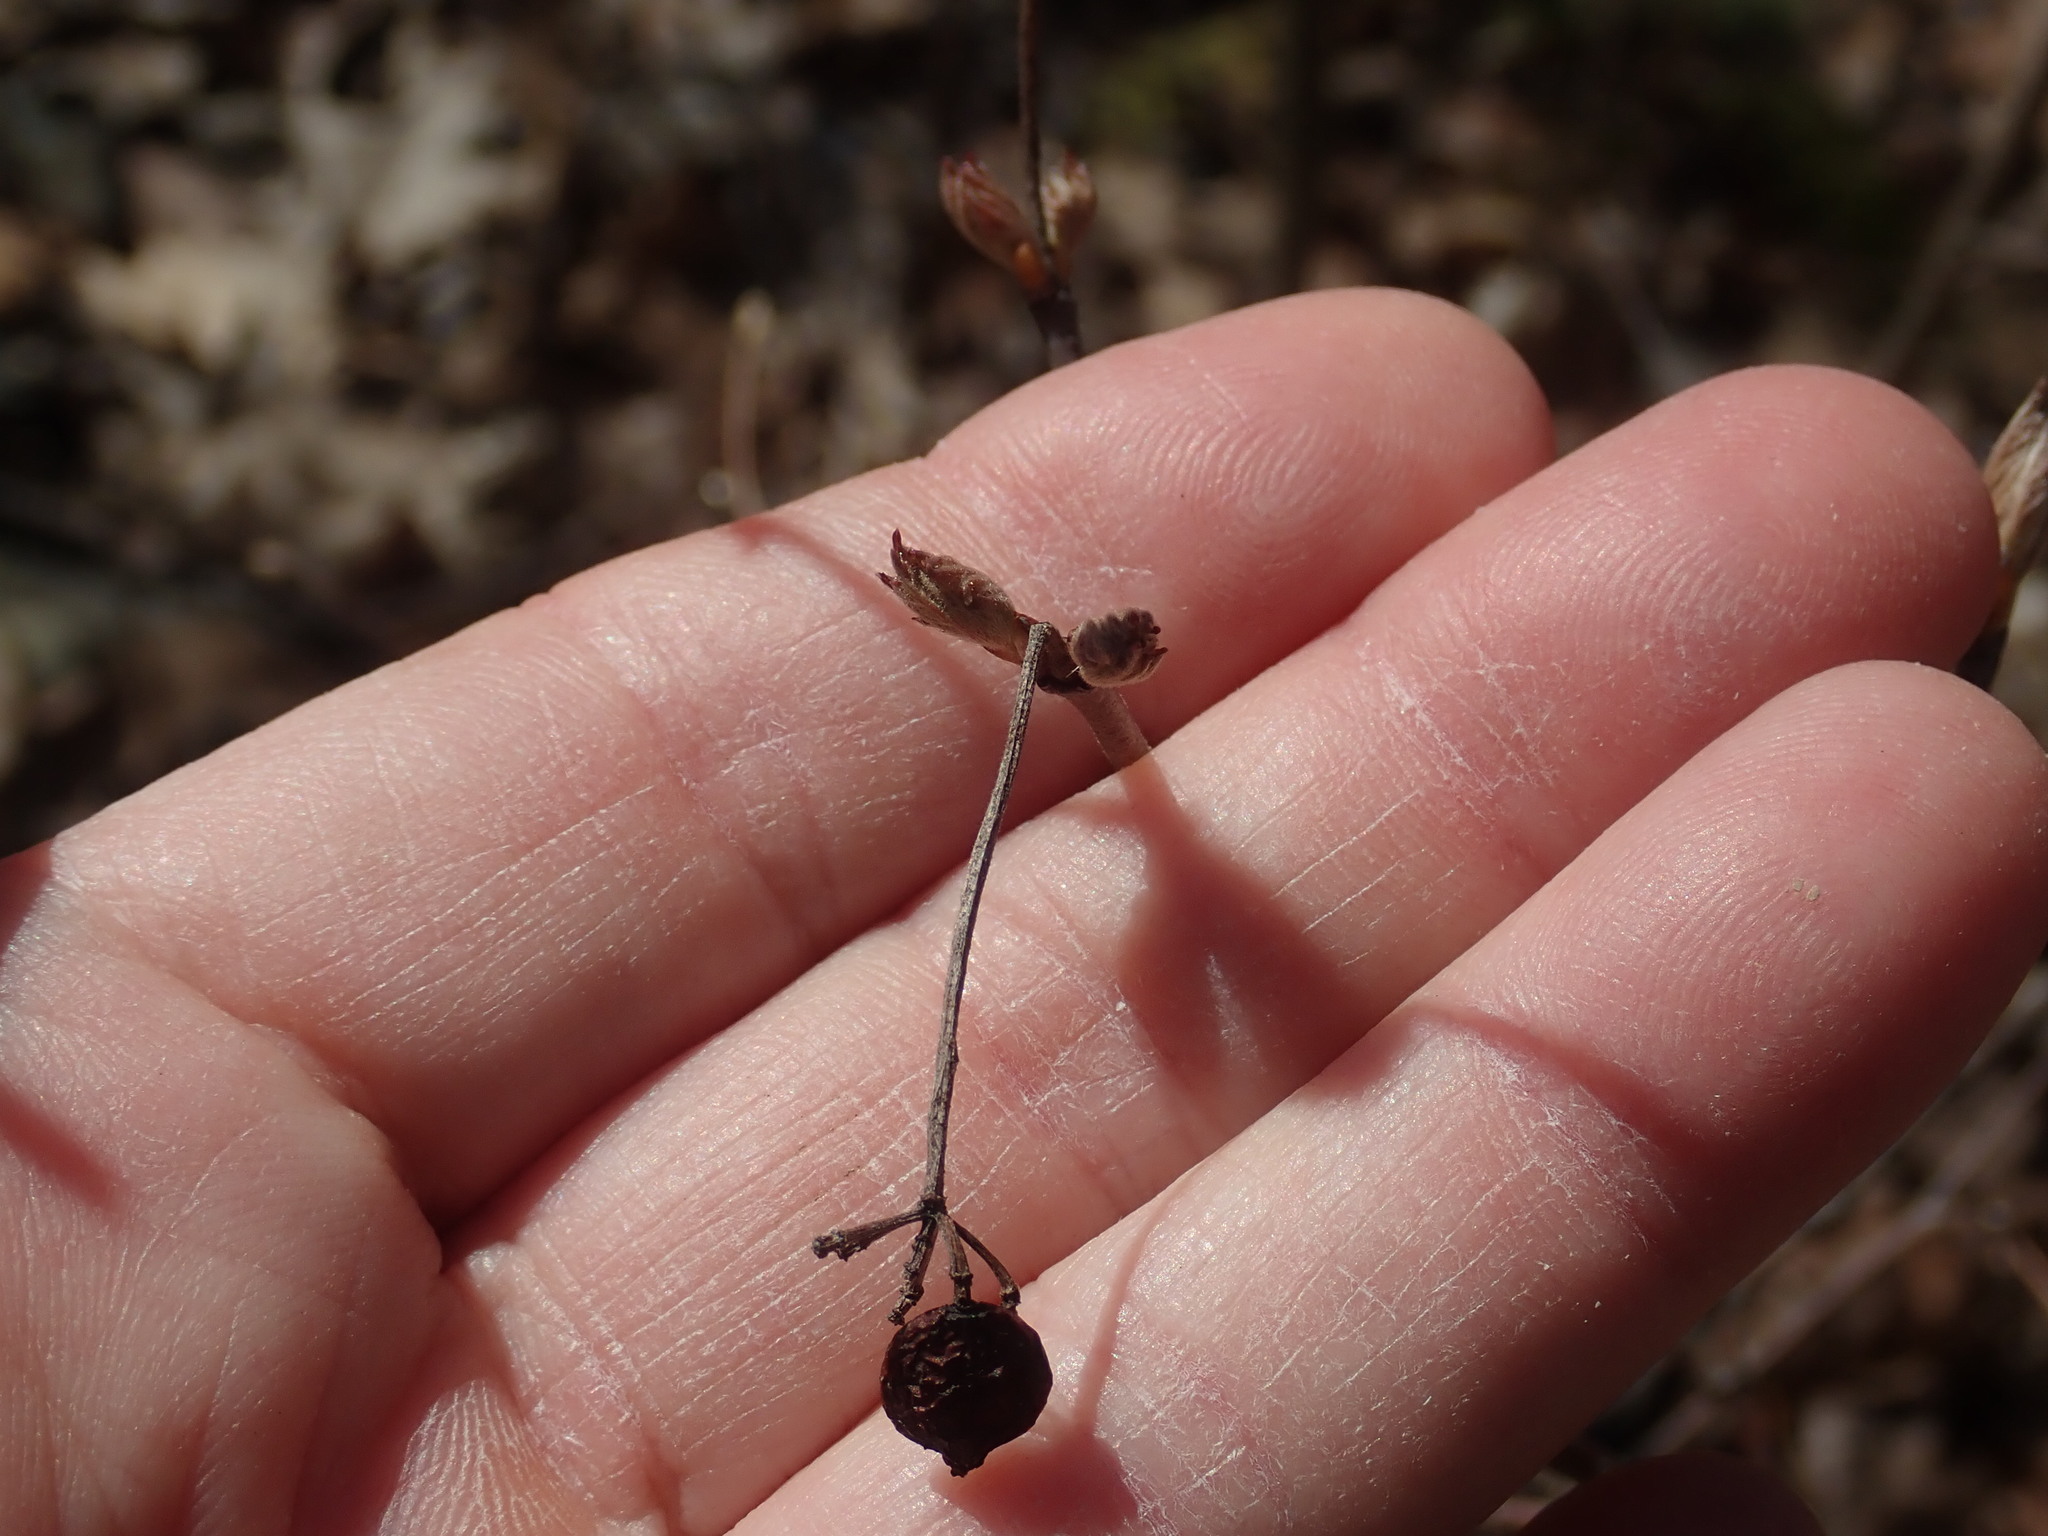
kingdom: Plantae
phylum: Tracheophyta
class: Magnoliopsida
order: Dipsacales
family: Viburnaceae
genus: Viburnum
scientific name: Viburnum acerifolium
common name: Dockmackie
